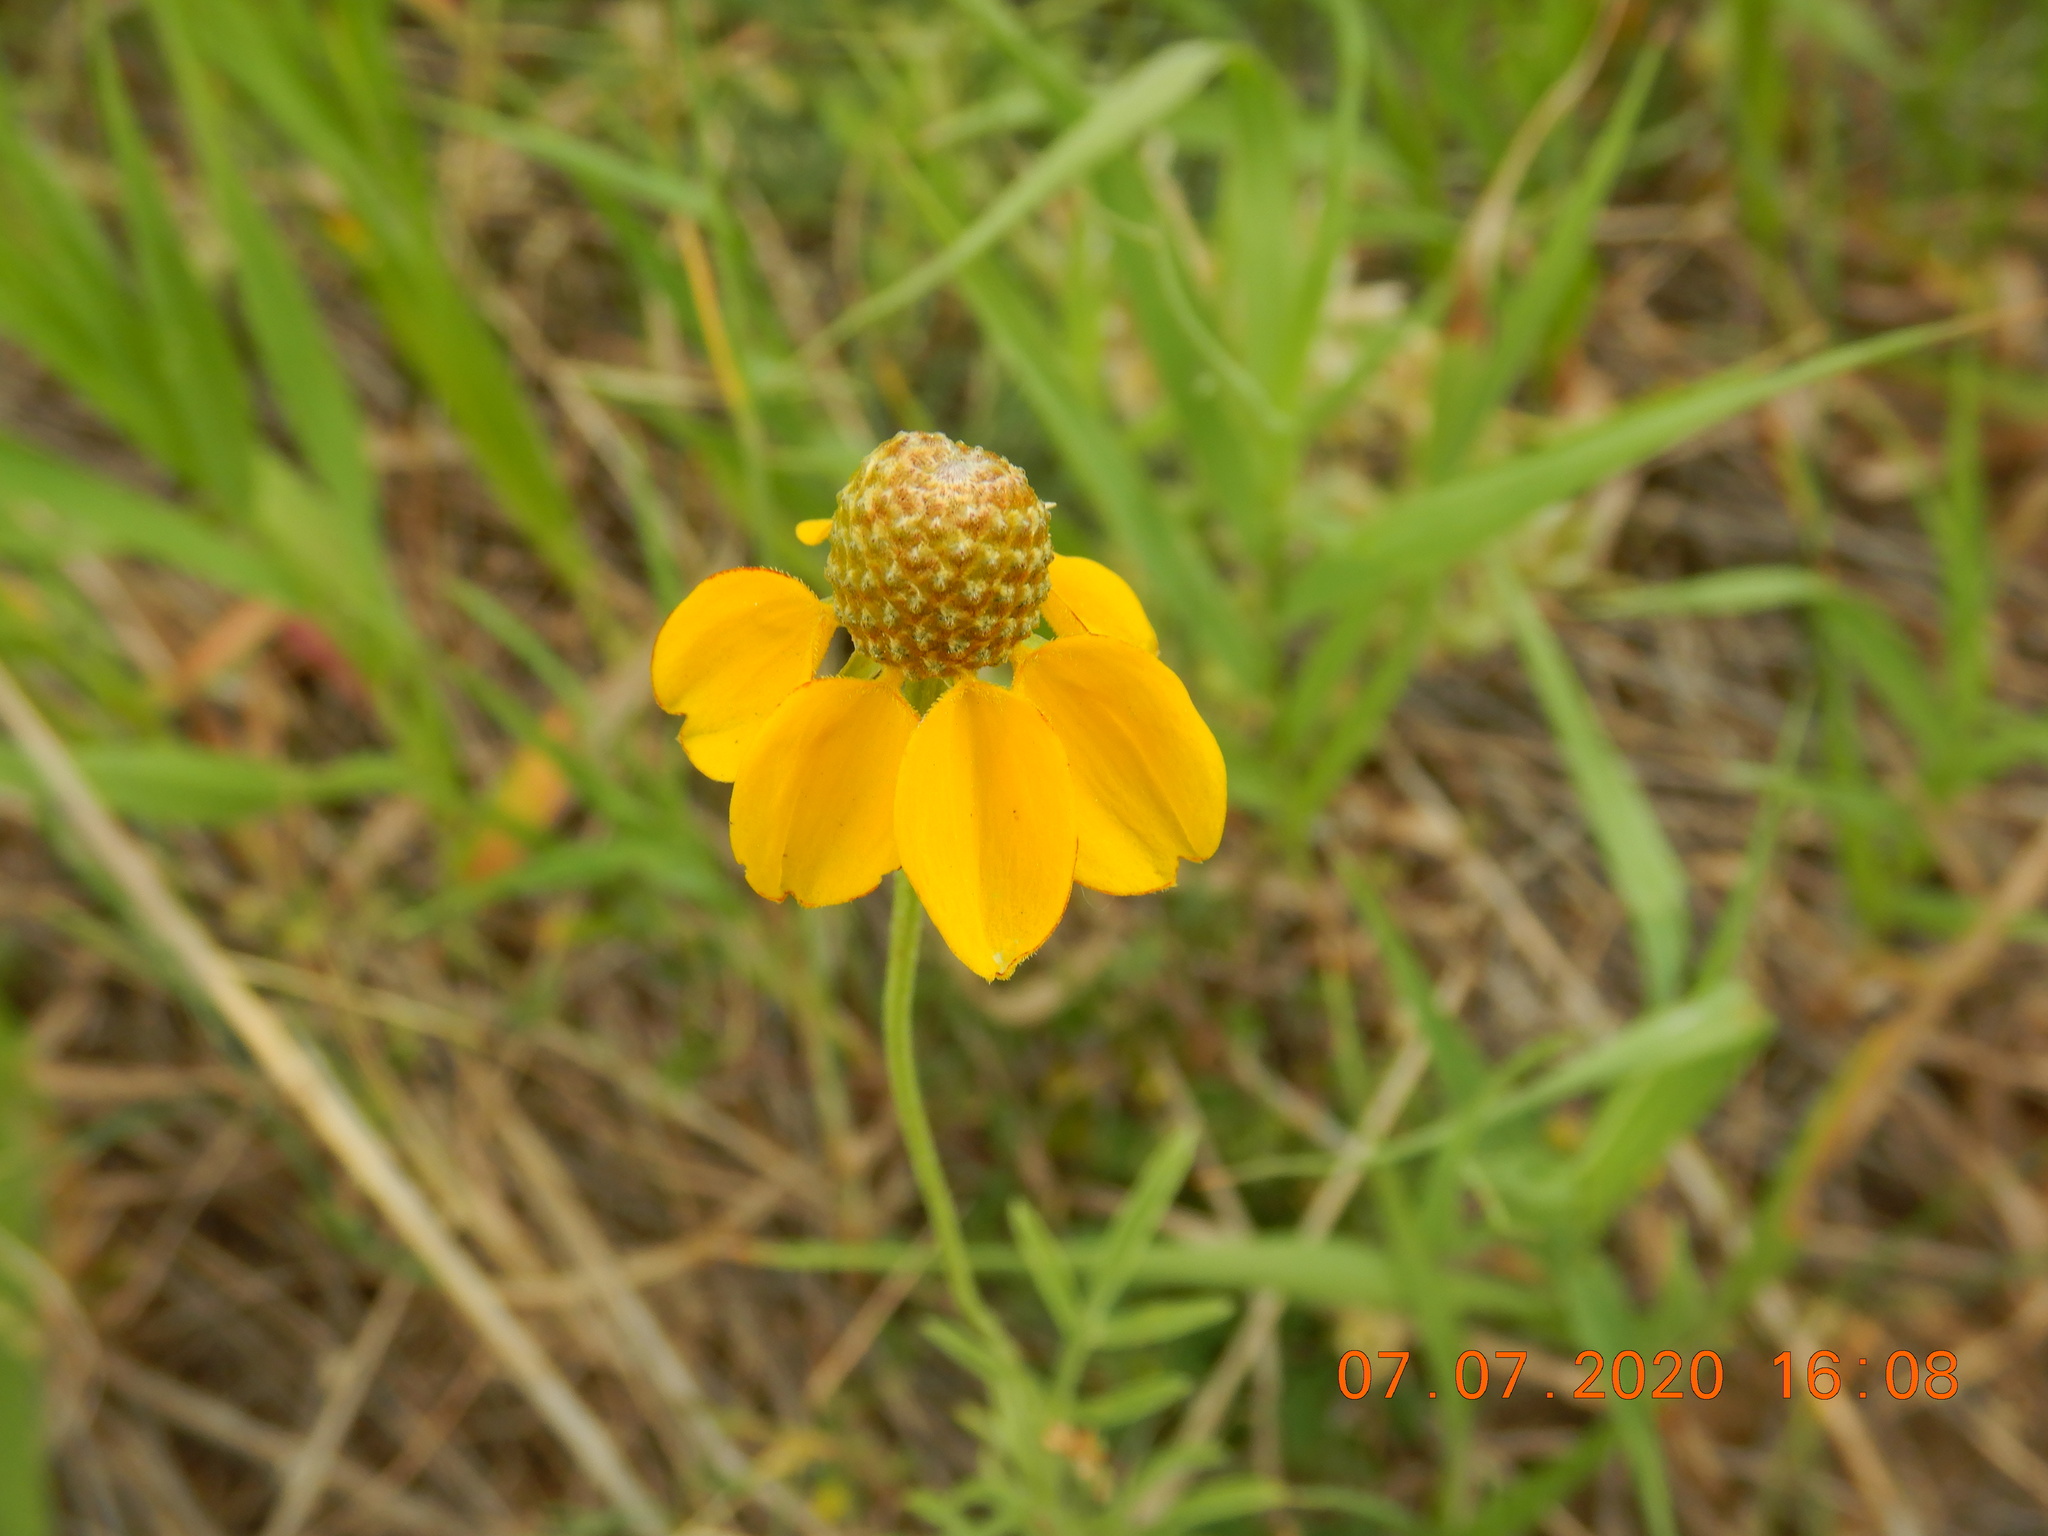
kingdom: Plantae
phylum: Tracheophyta
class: Magnoliopsida
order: Asterales
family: Asteraceae
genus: Ratibida
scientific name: Ratibida columnifera
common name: Prairie coneflower
